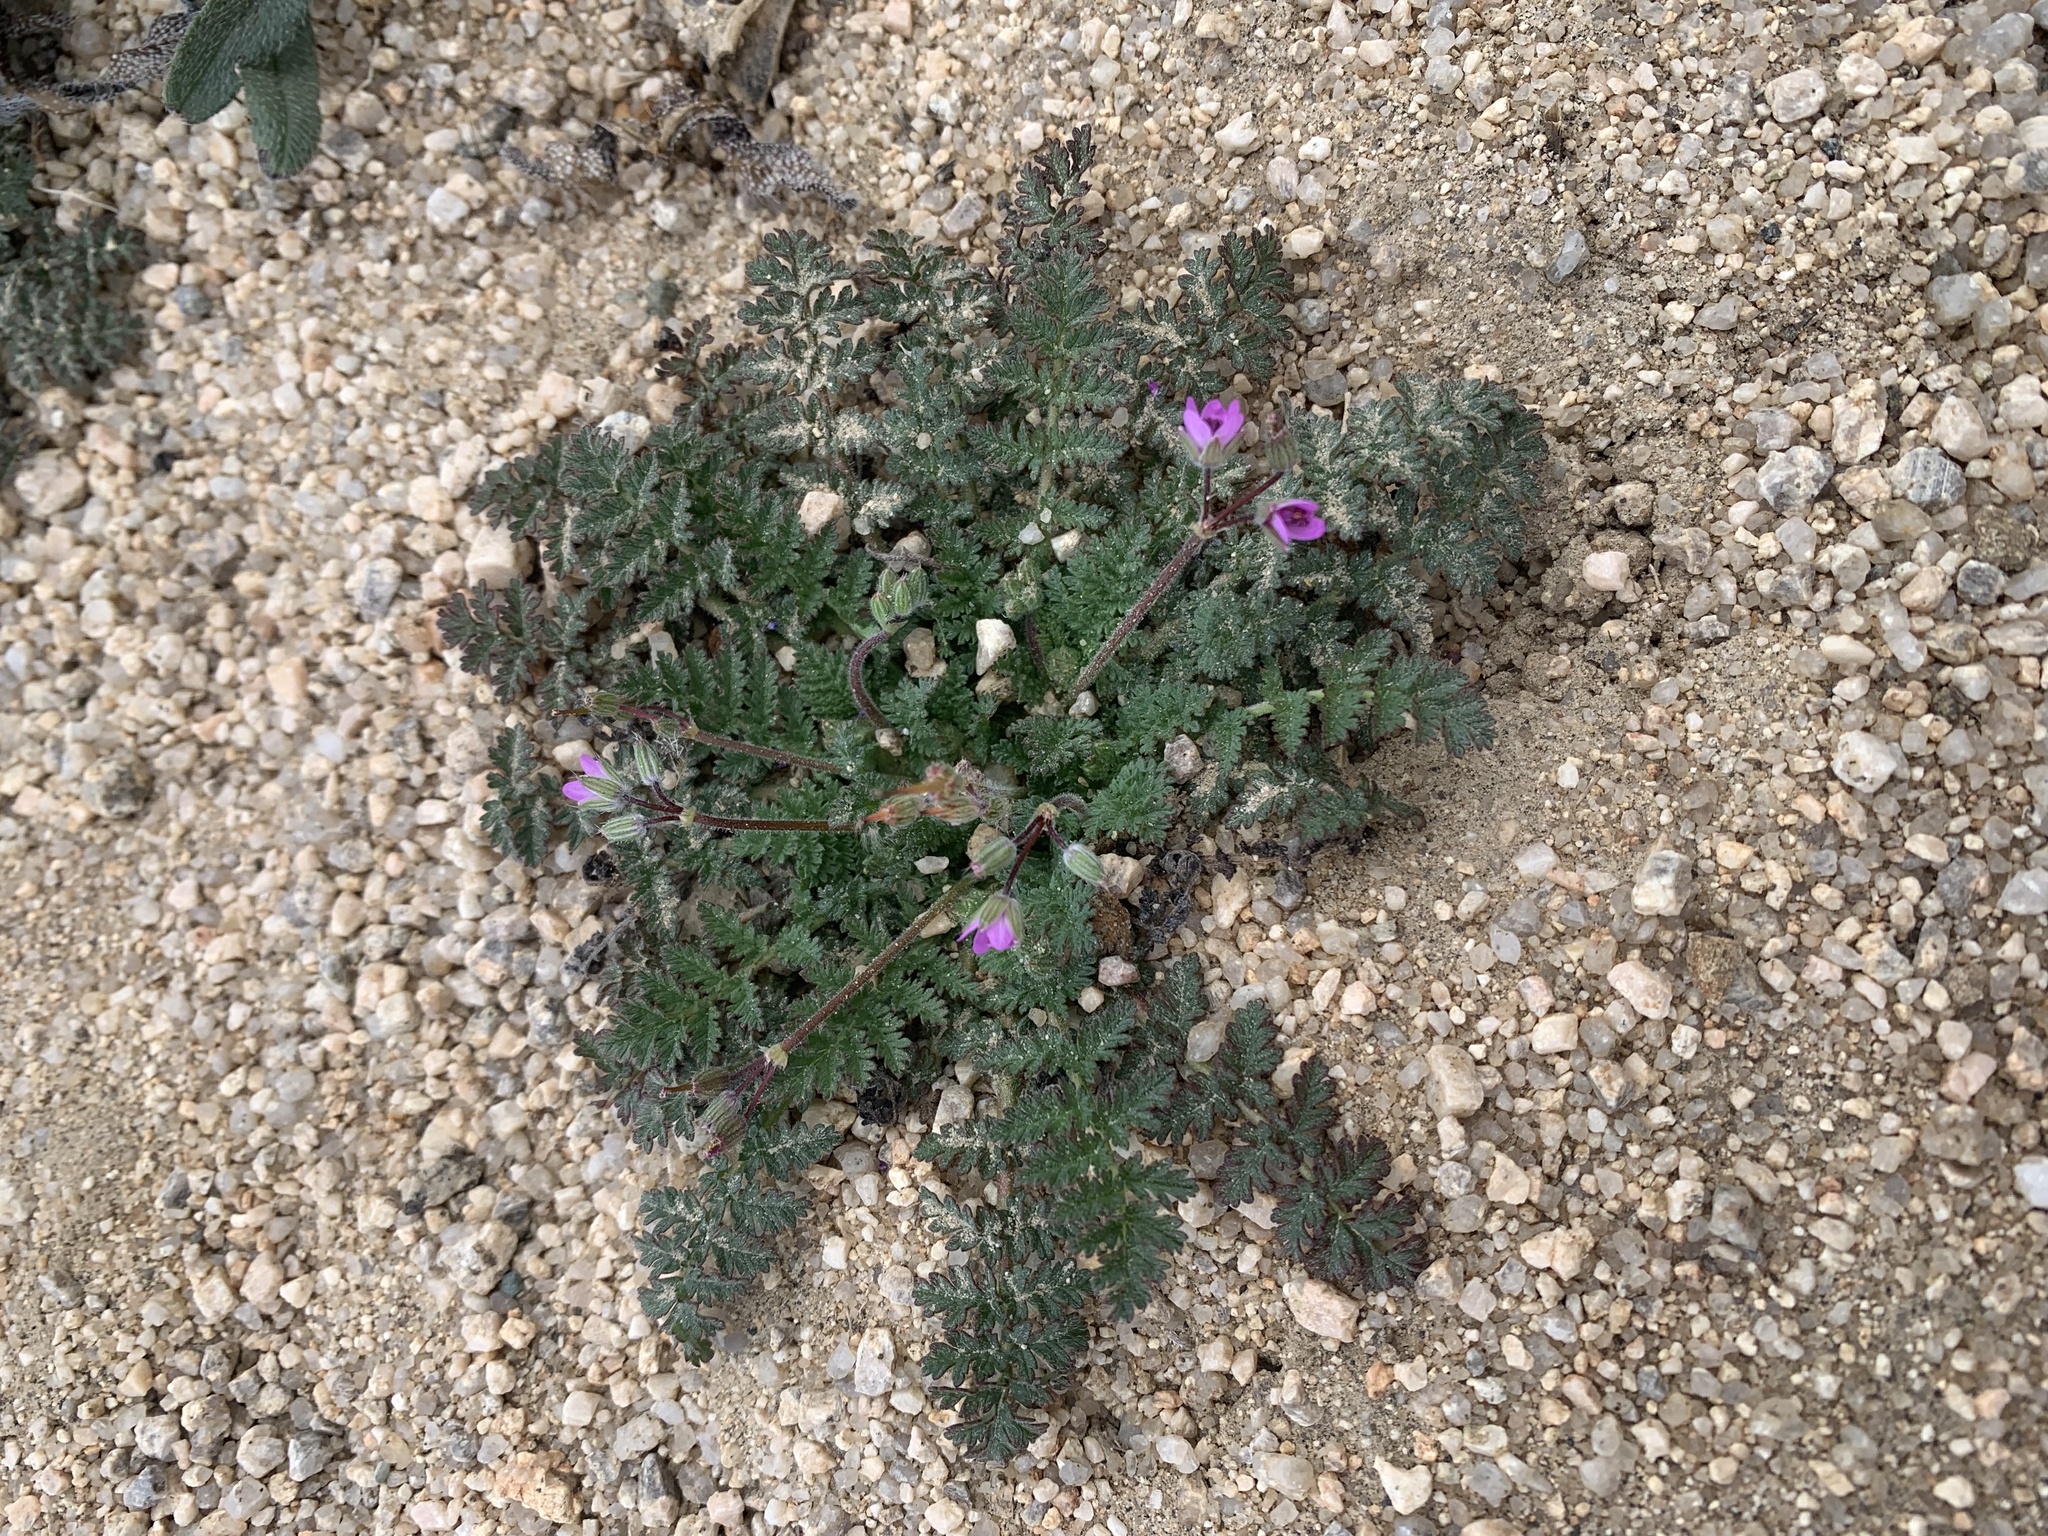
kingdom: Plantae
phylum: Tracheophyta
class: Magnoliopsida
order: Geraniales
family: Geraniaceae
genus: Erodium
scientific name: Erodium cicutarium
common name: Common stork's-bill
